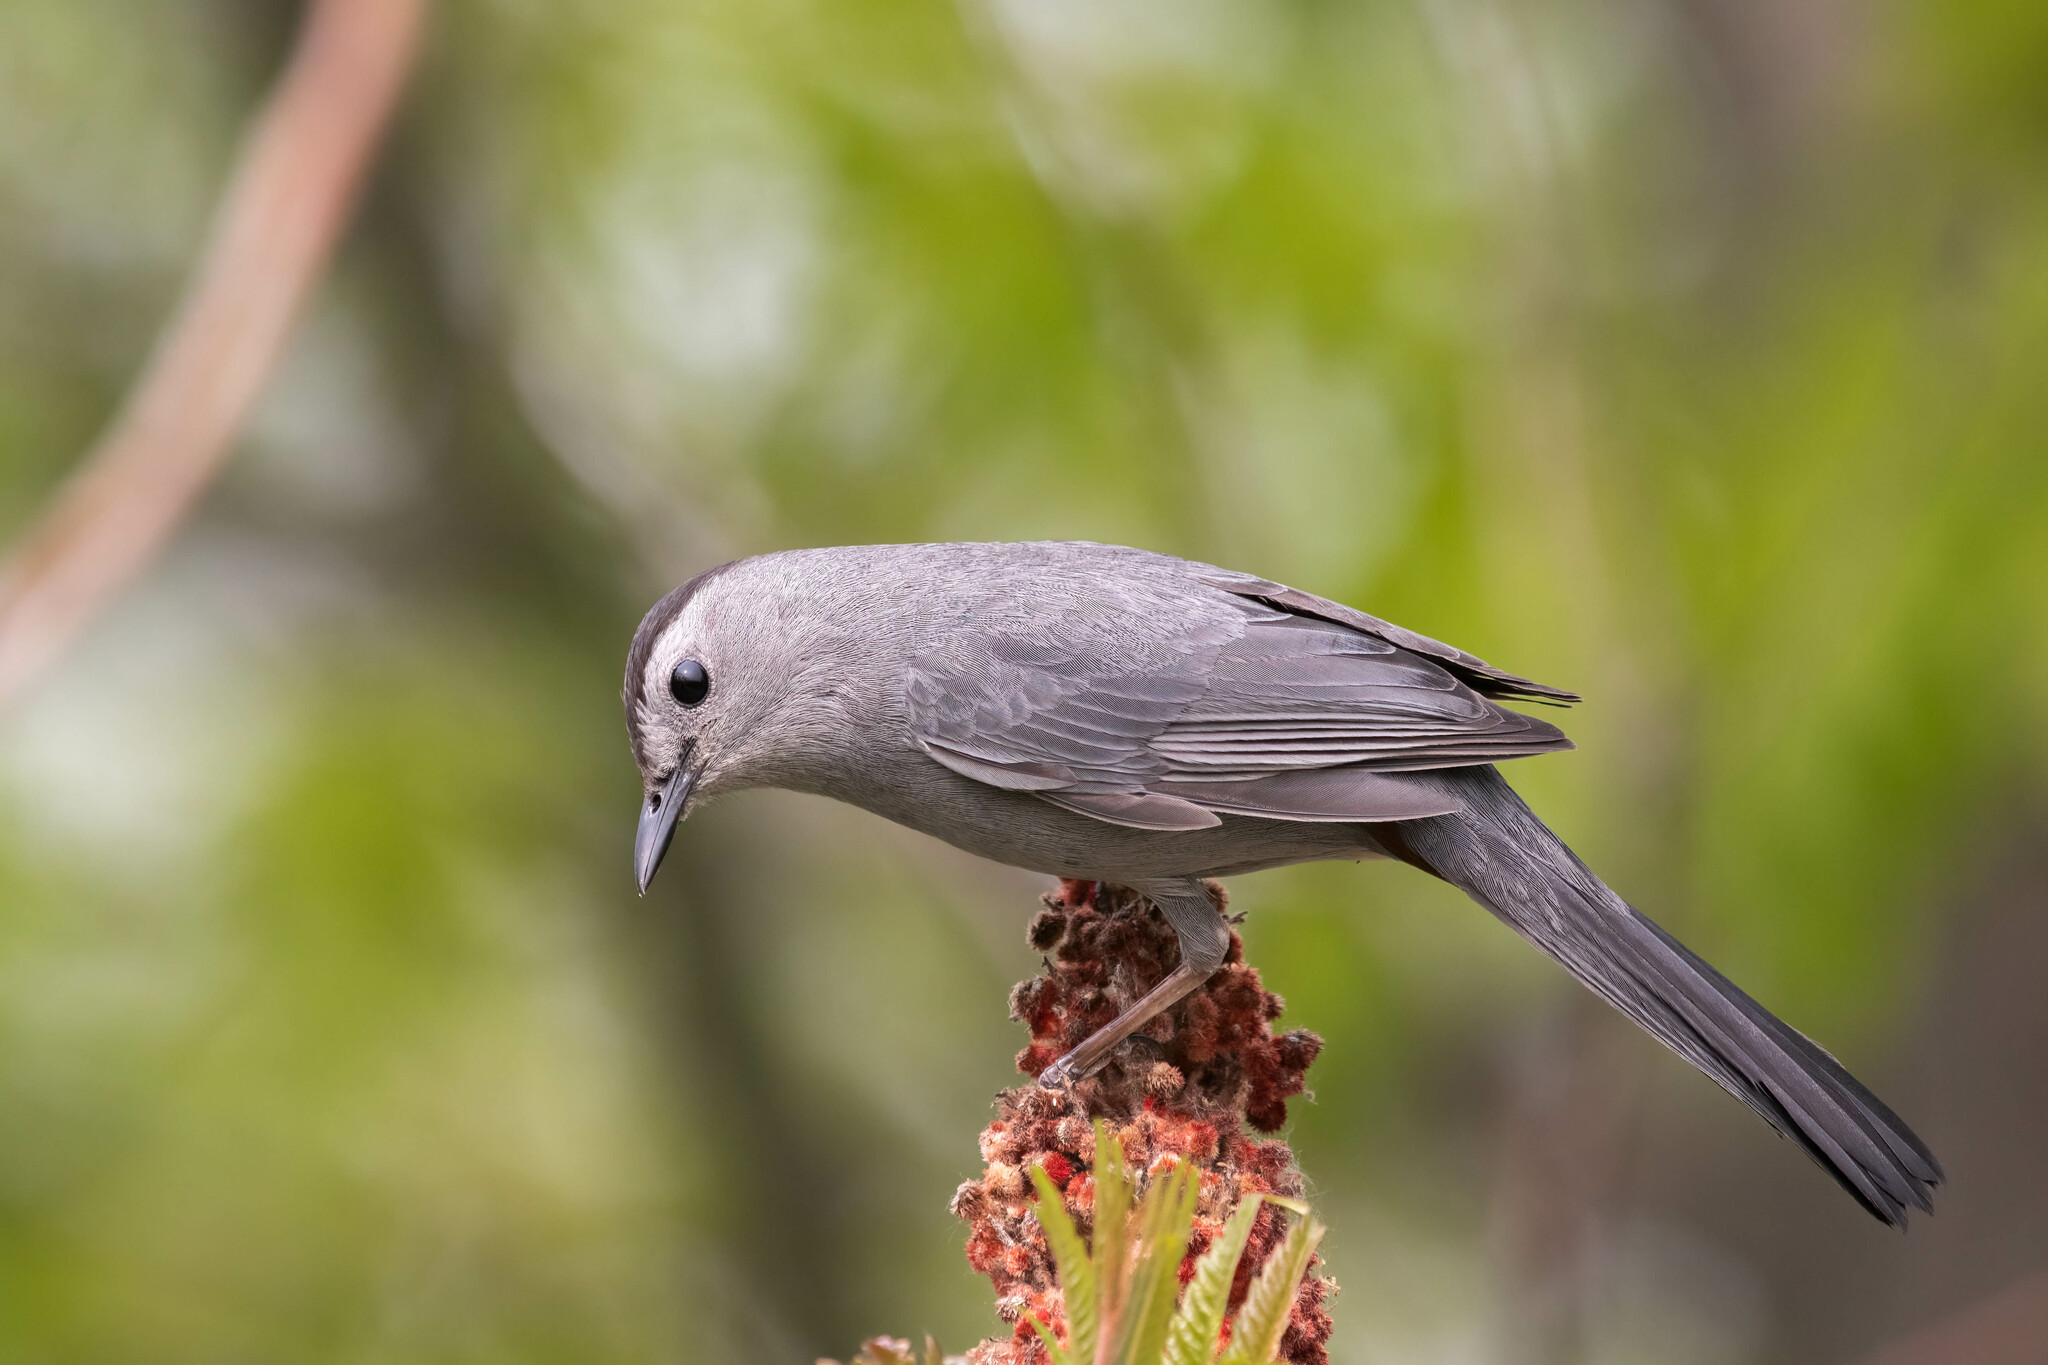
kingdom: Animalia
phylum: Chordata
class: Aves
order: Passeriformes
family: Mimidae
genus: Dumetella
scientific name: Dumetella carolinensis
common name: Gray catbird
